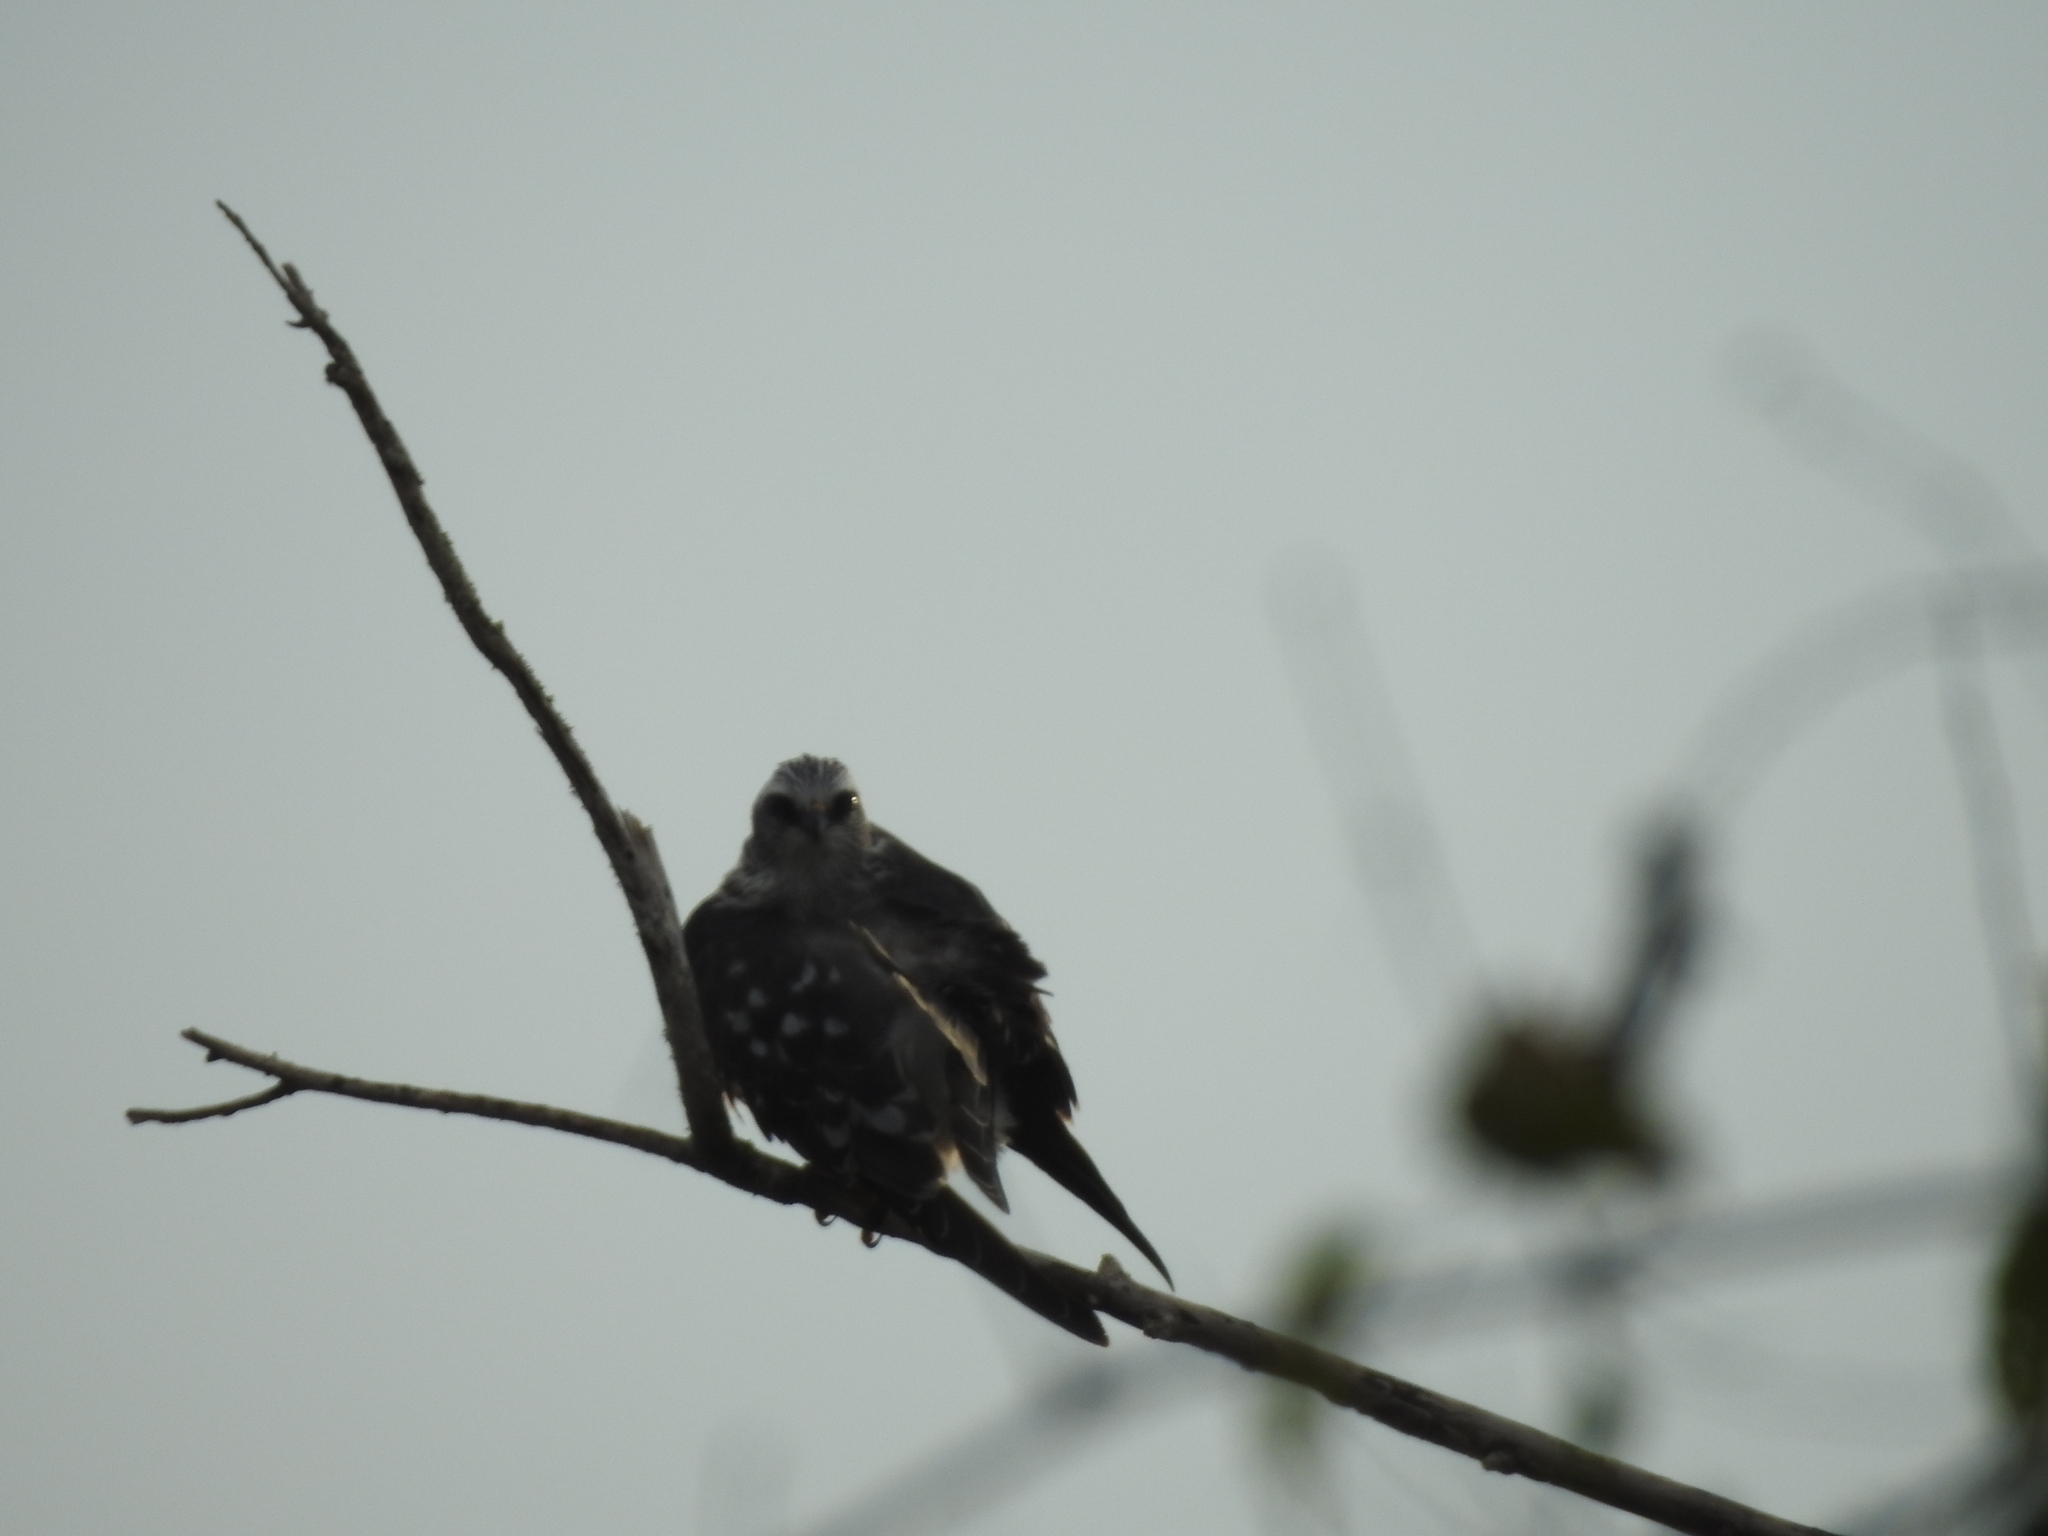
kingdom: Animalia
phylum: Chordata
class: Aves
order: Accipitriformes
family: Accipitridae
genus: Ictinia
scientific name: Ictinia mississippiensis
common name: Mississippi kite
